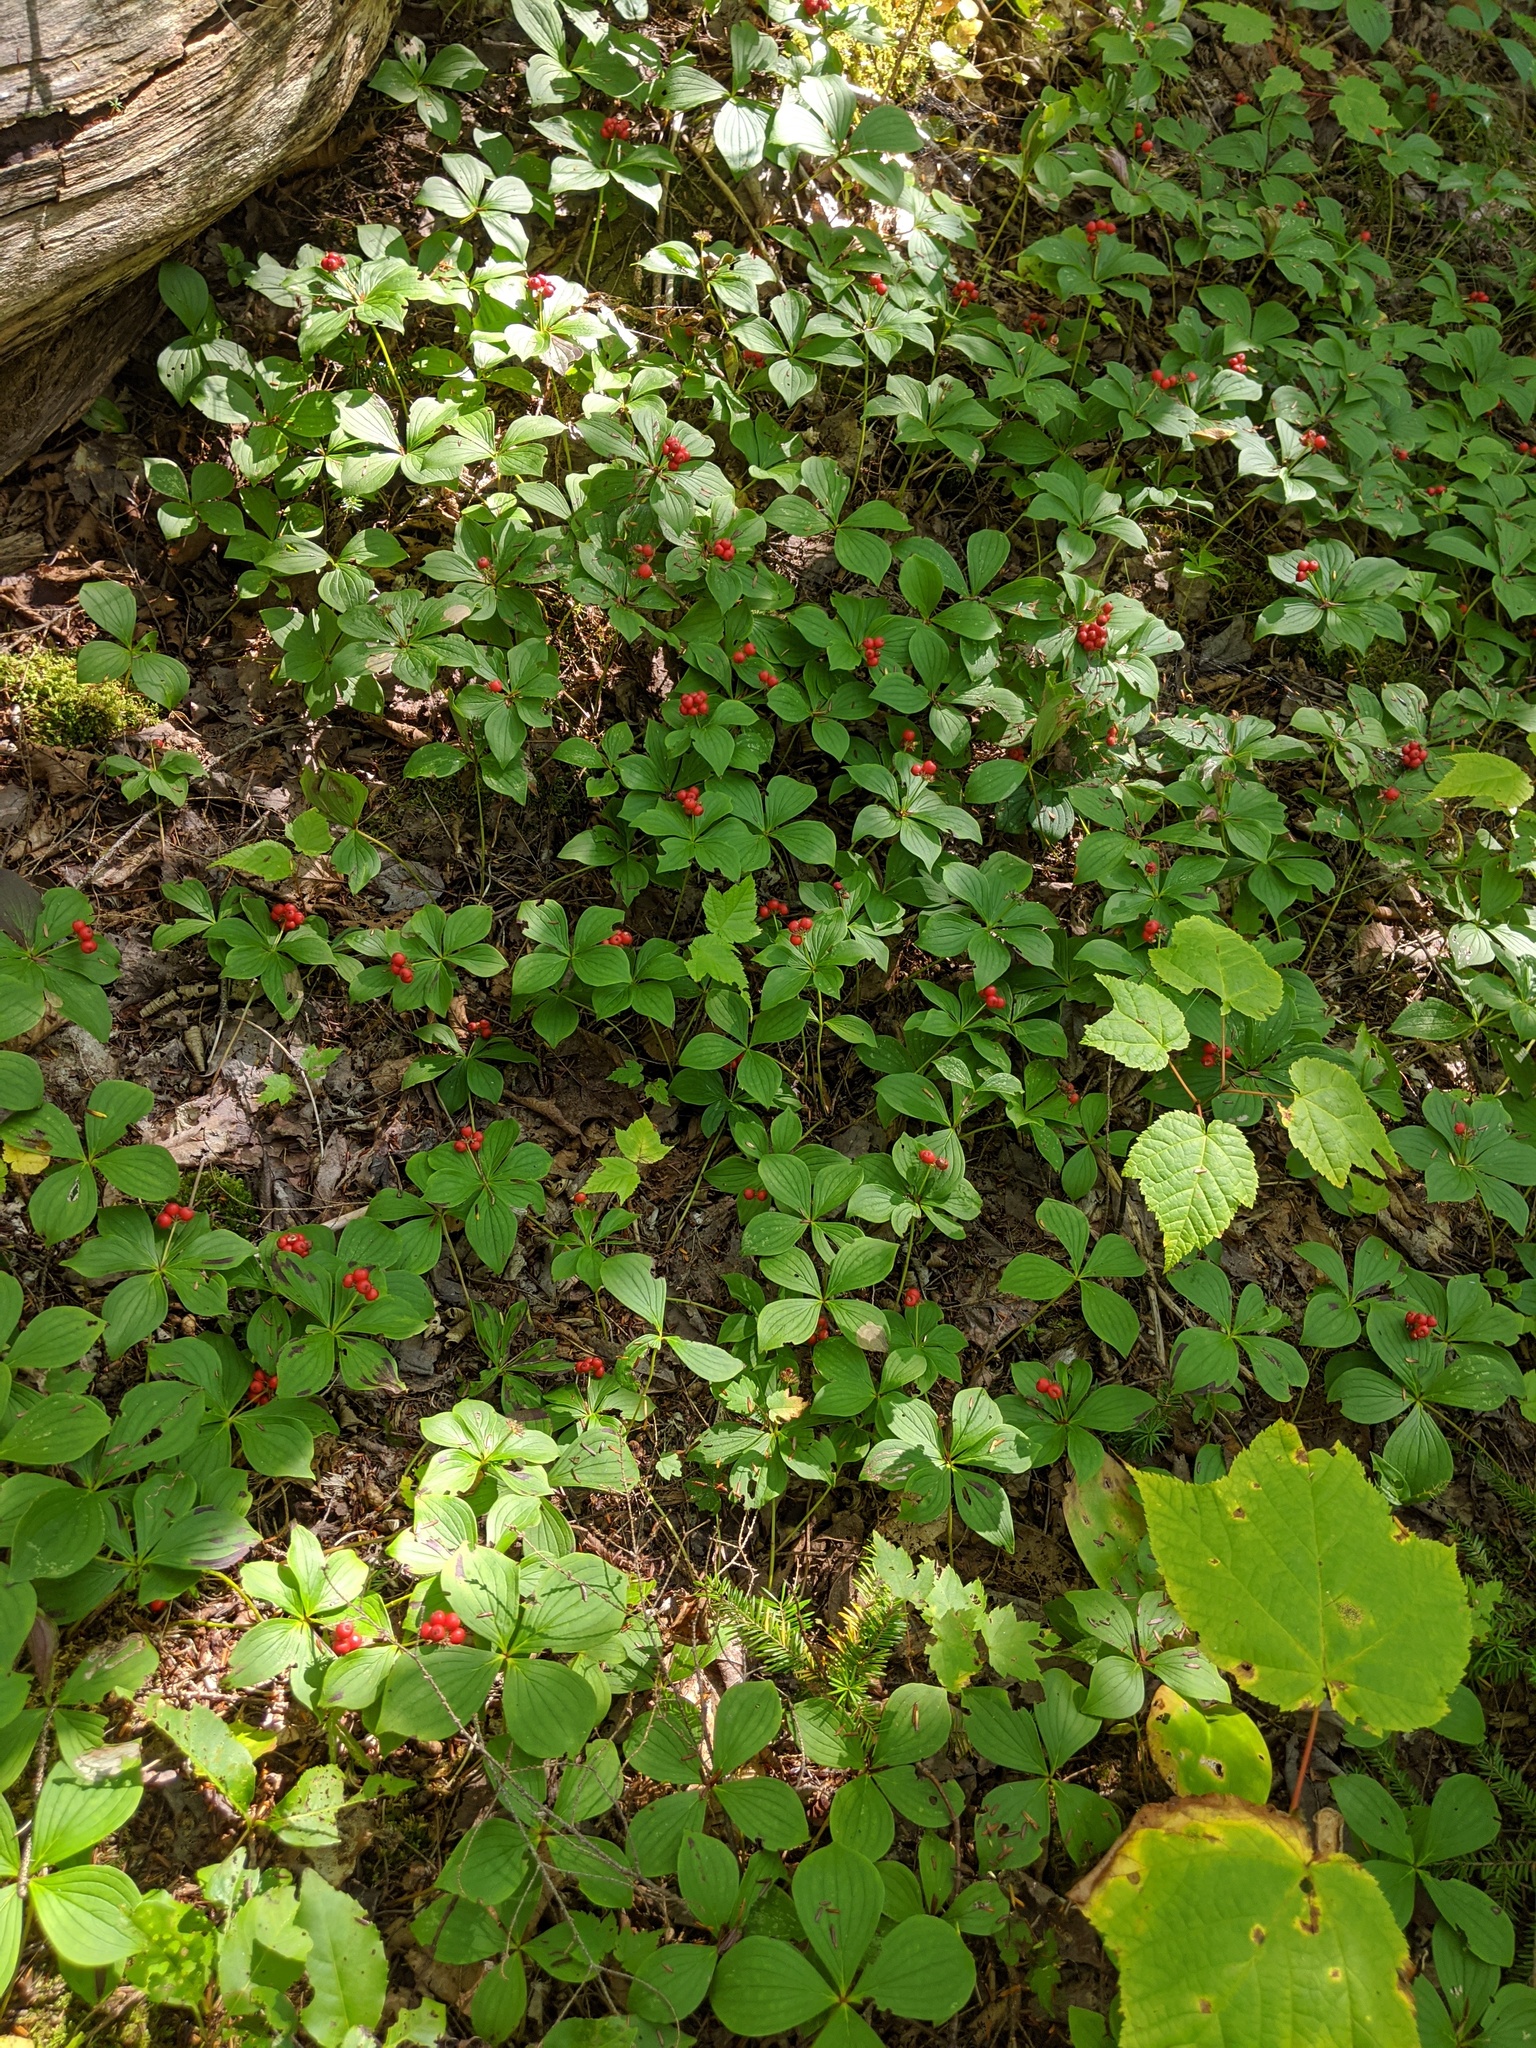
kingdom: Plantae
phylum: Tracheophyta
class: Magnoliopsida
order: Cornales
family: Cornaceae
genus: Cornus
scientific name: Cornus canadensis
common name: Creeping dogwood
